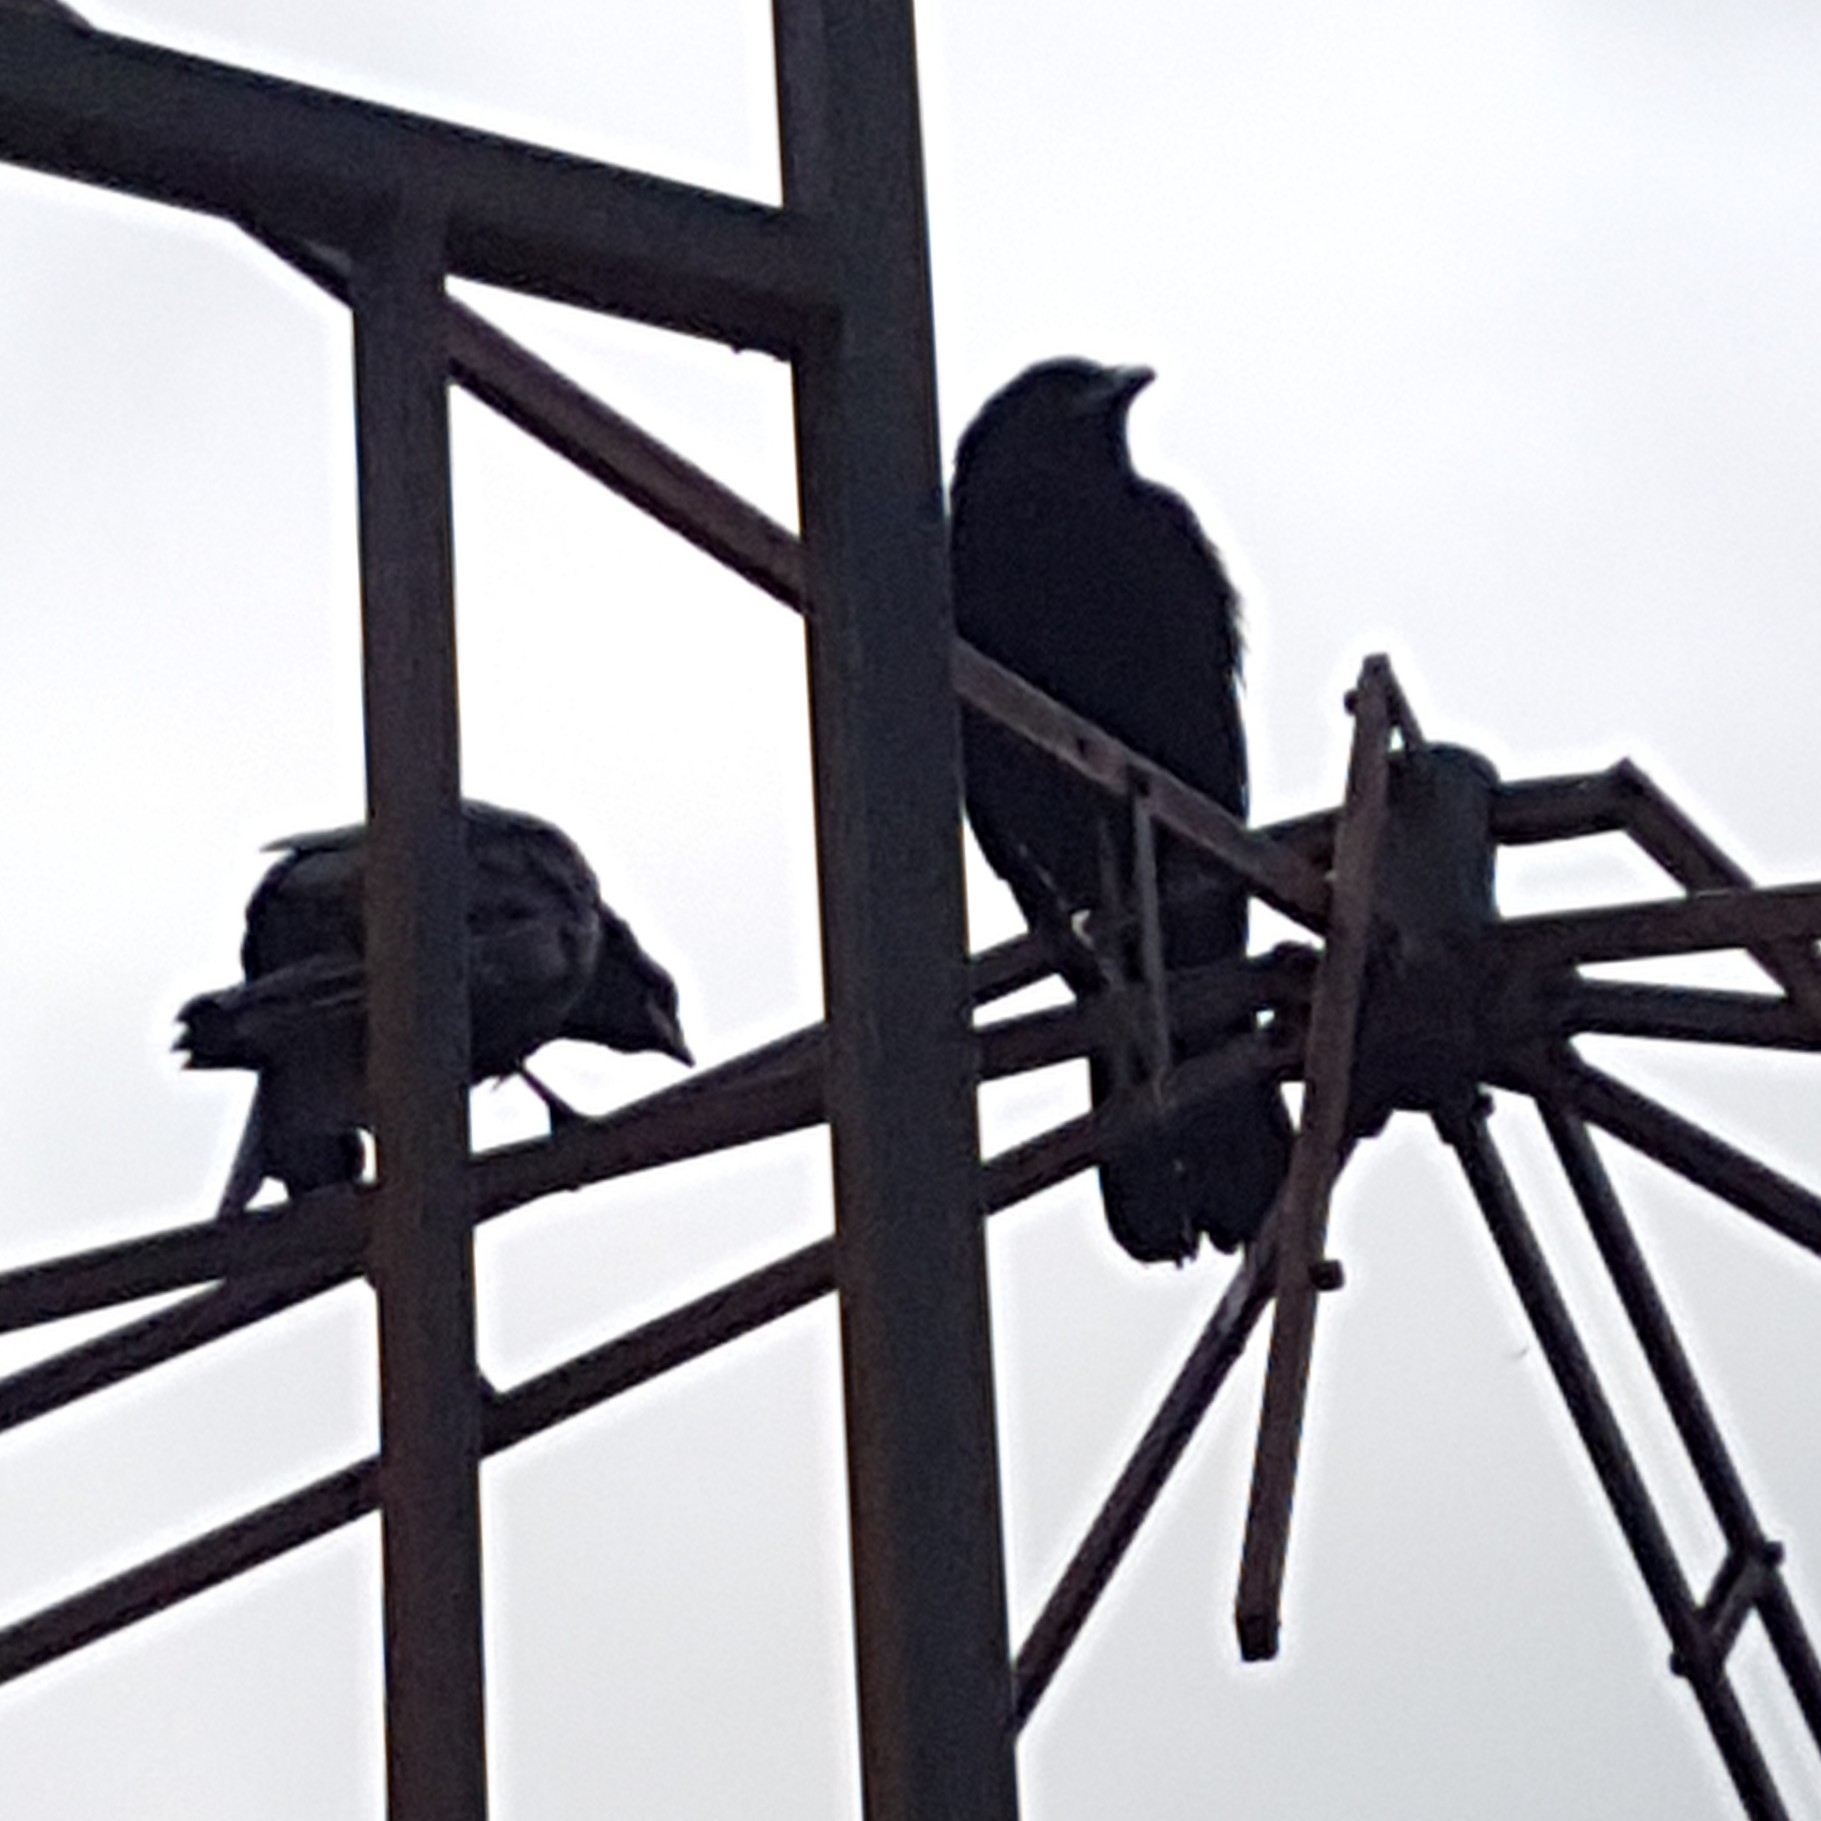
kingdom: Animalia
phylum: Chordata
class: Aves
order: Passeriformes
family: Corvidae
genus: Corvus
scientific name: Corvus brachyrhynchos
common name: American crow
